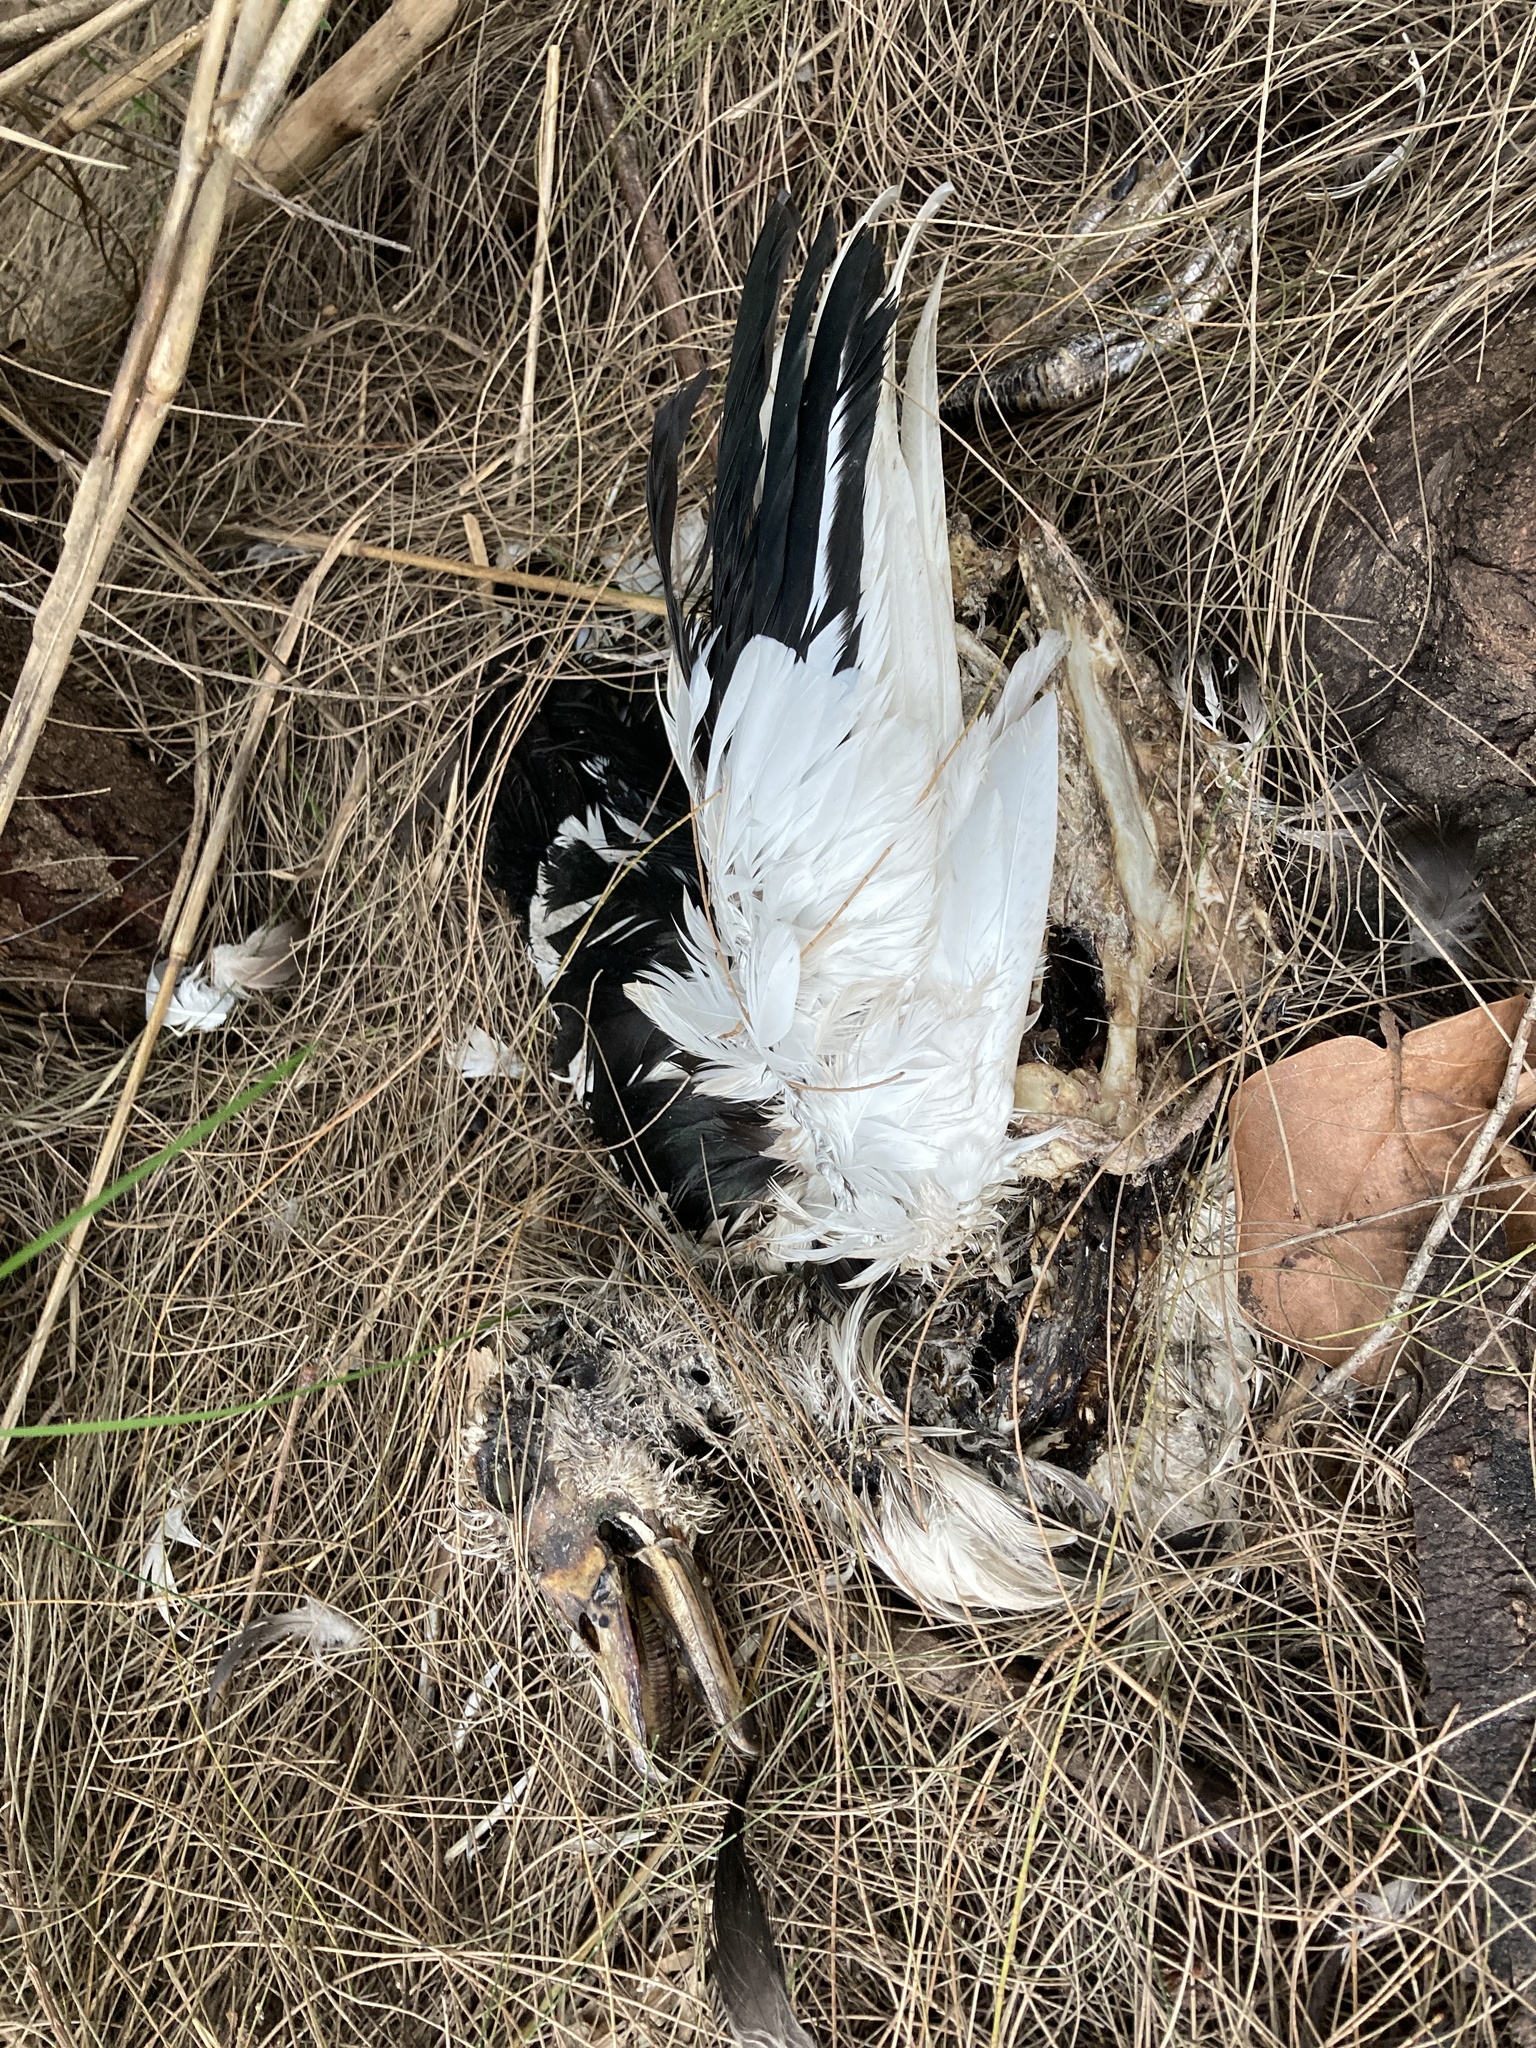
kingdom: Animalia
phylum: Chordata
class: Aves
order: Anseriformes
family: Anatidae
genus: Cairina
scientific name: Cairina moschata
